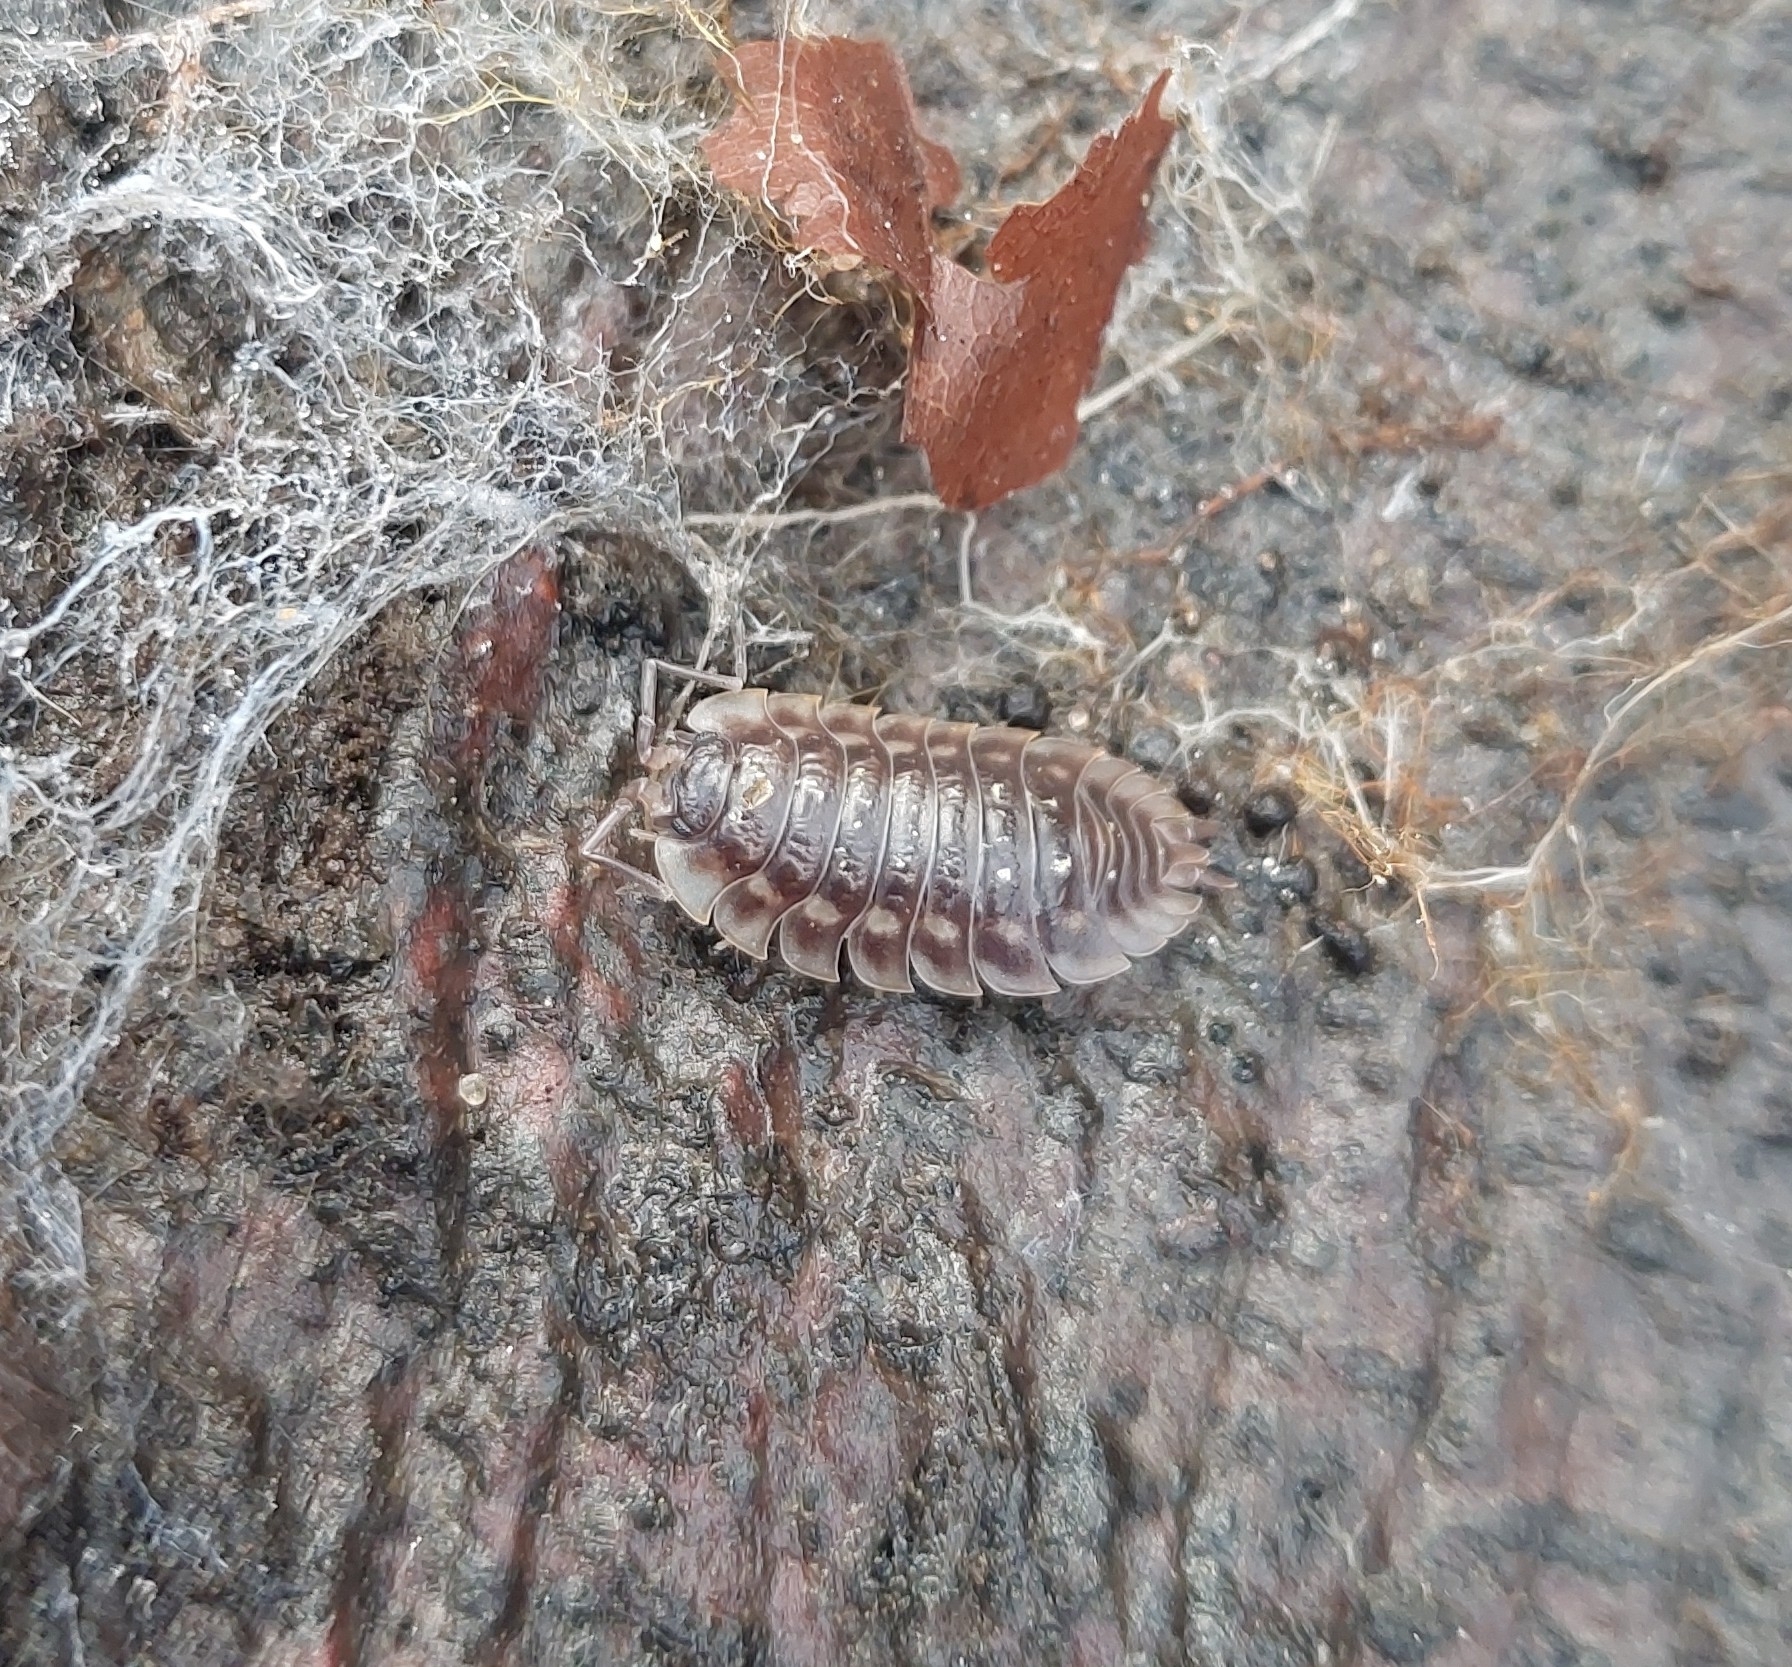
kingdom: Animalia
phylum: Arthropoda
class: Malacostraca
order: Isopoda
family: Oniscidae
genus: Oniscus
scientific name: Oniscus asellus
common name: Common shiny woodlouse
